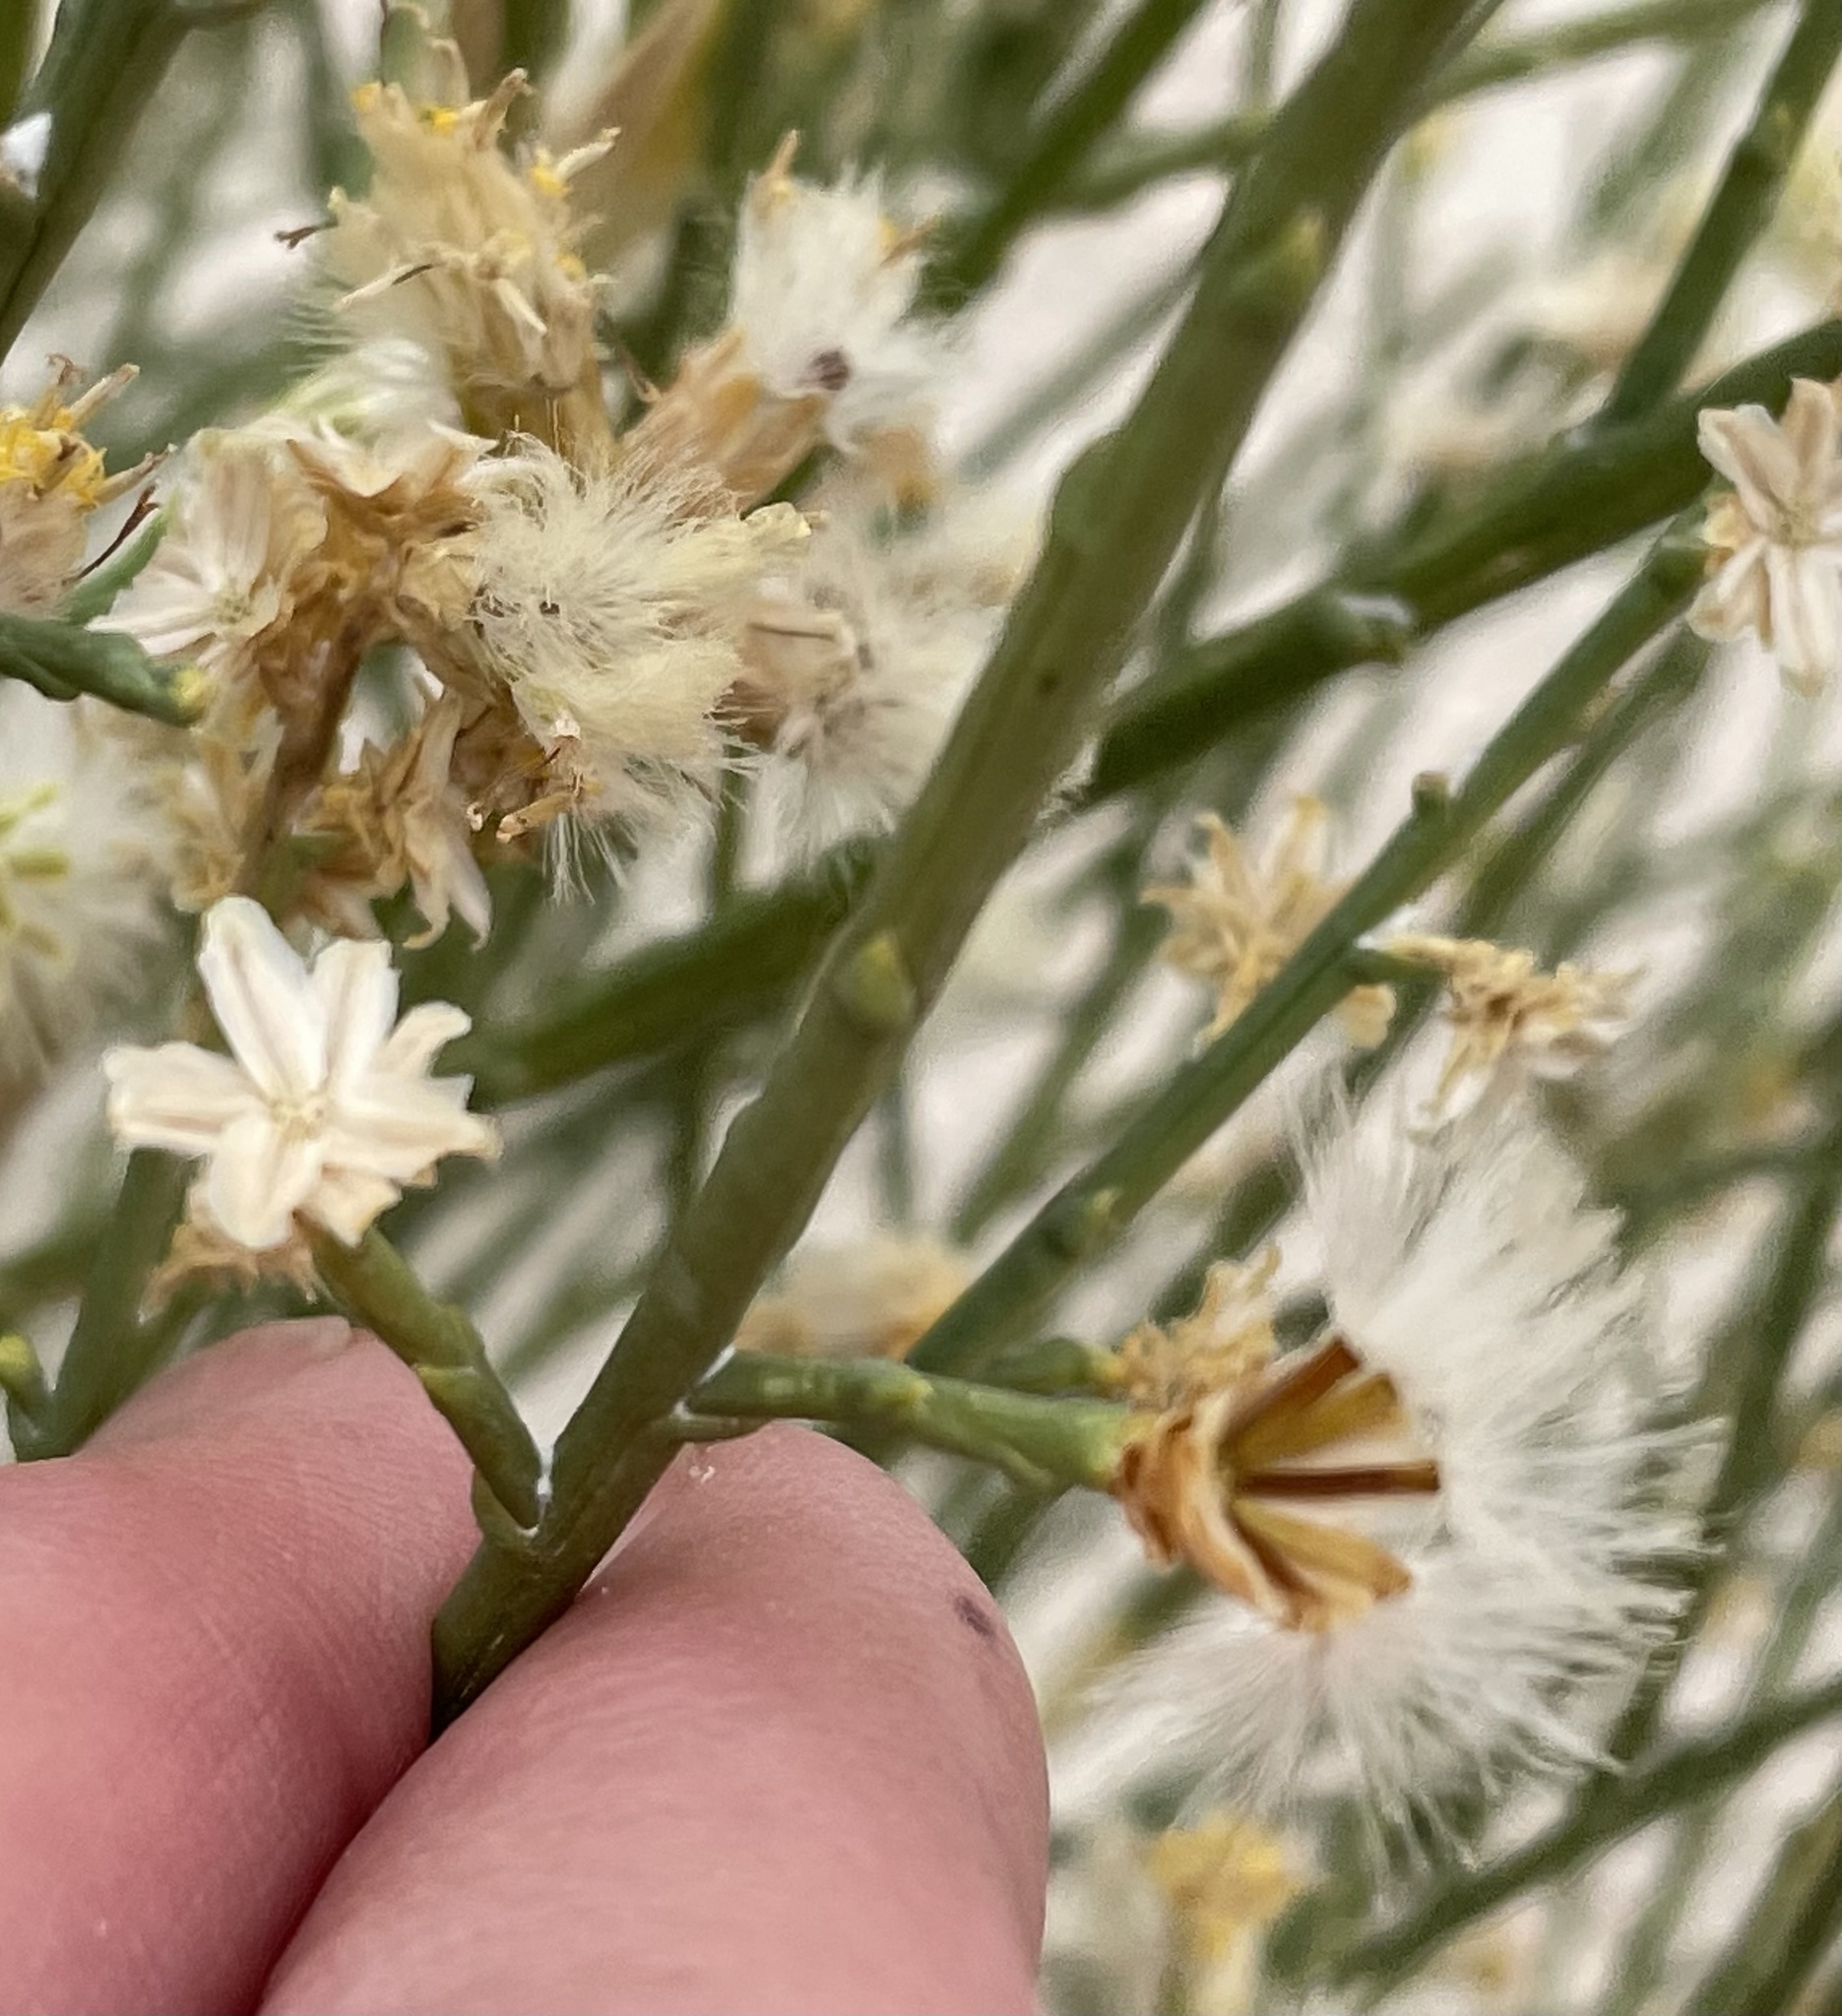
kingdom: Plantae
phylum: Tracheophyta
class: Magnoliopsida
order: Asterales
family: Asteraceae
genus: Lepidospartum
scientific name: Lepidospartum squamatum
